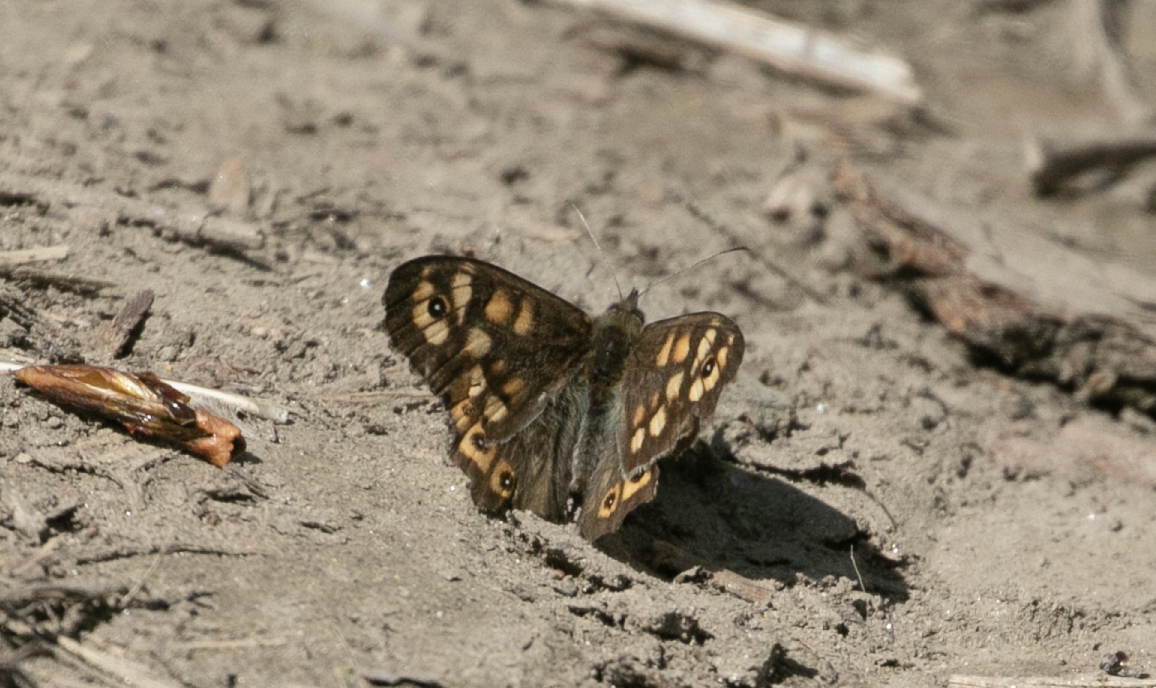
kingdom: Animalia
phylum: Arthropoda
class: Insecta
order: Lepidoptera
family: Nymphalidae
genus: Pararge
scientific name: Pararge aegeria
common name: Speckled wood
